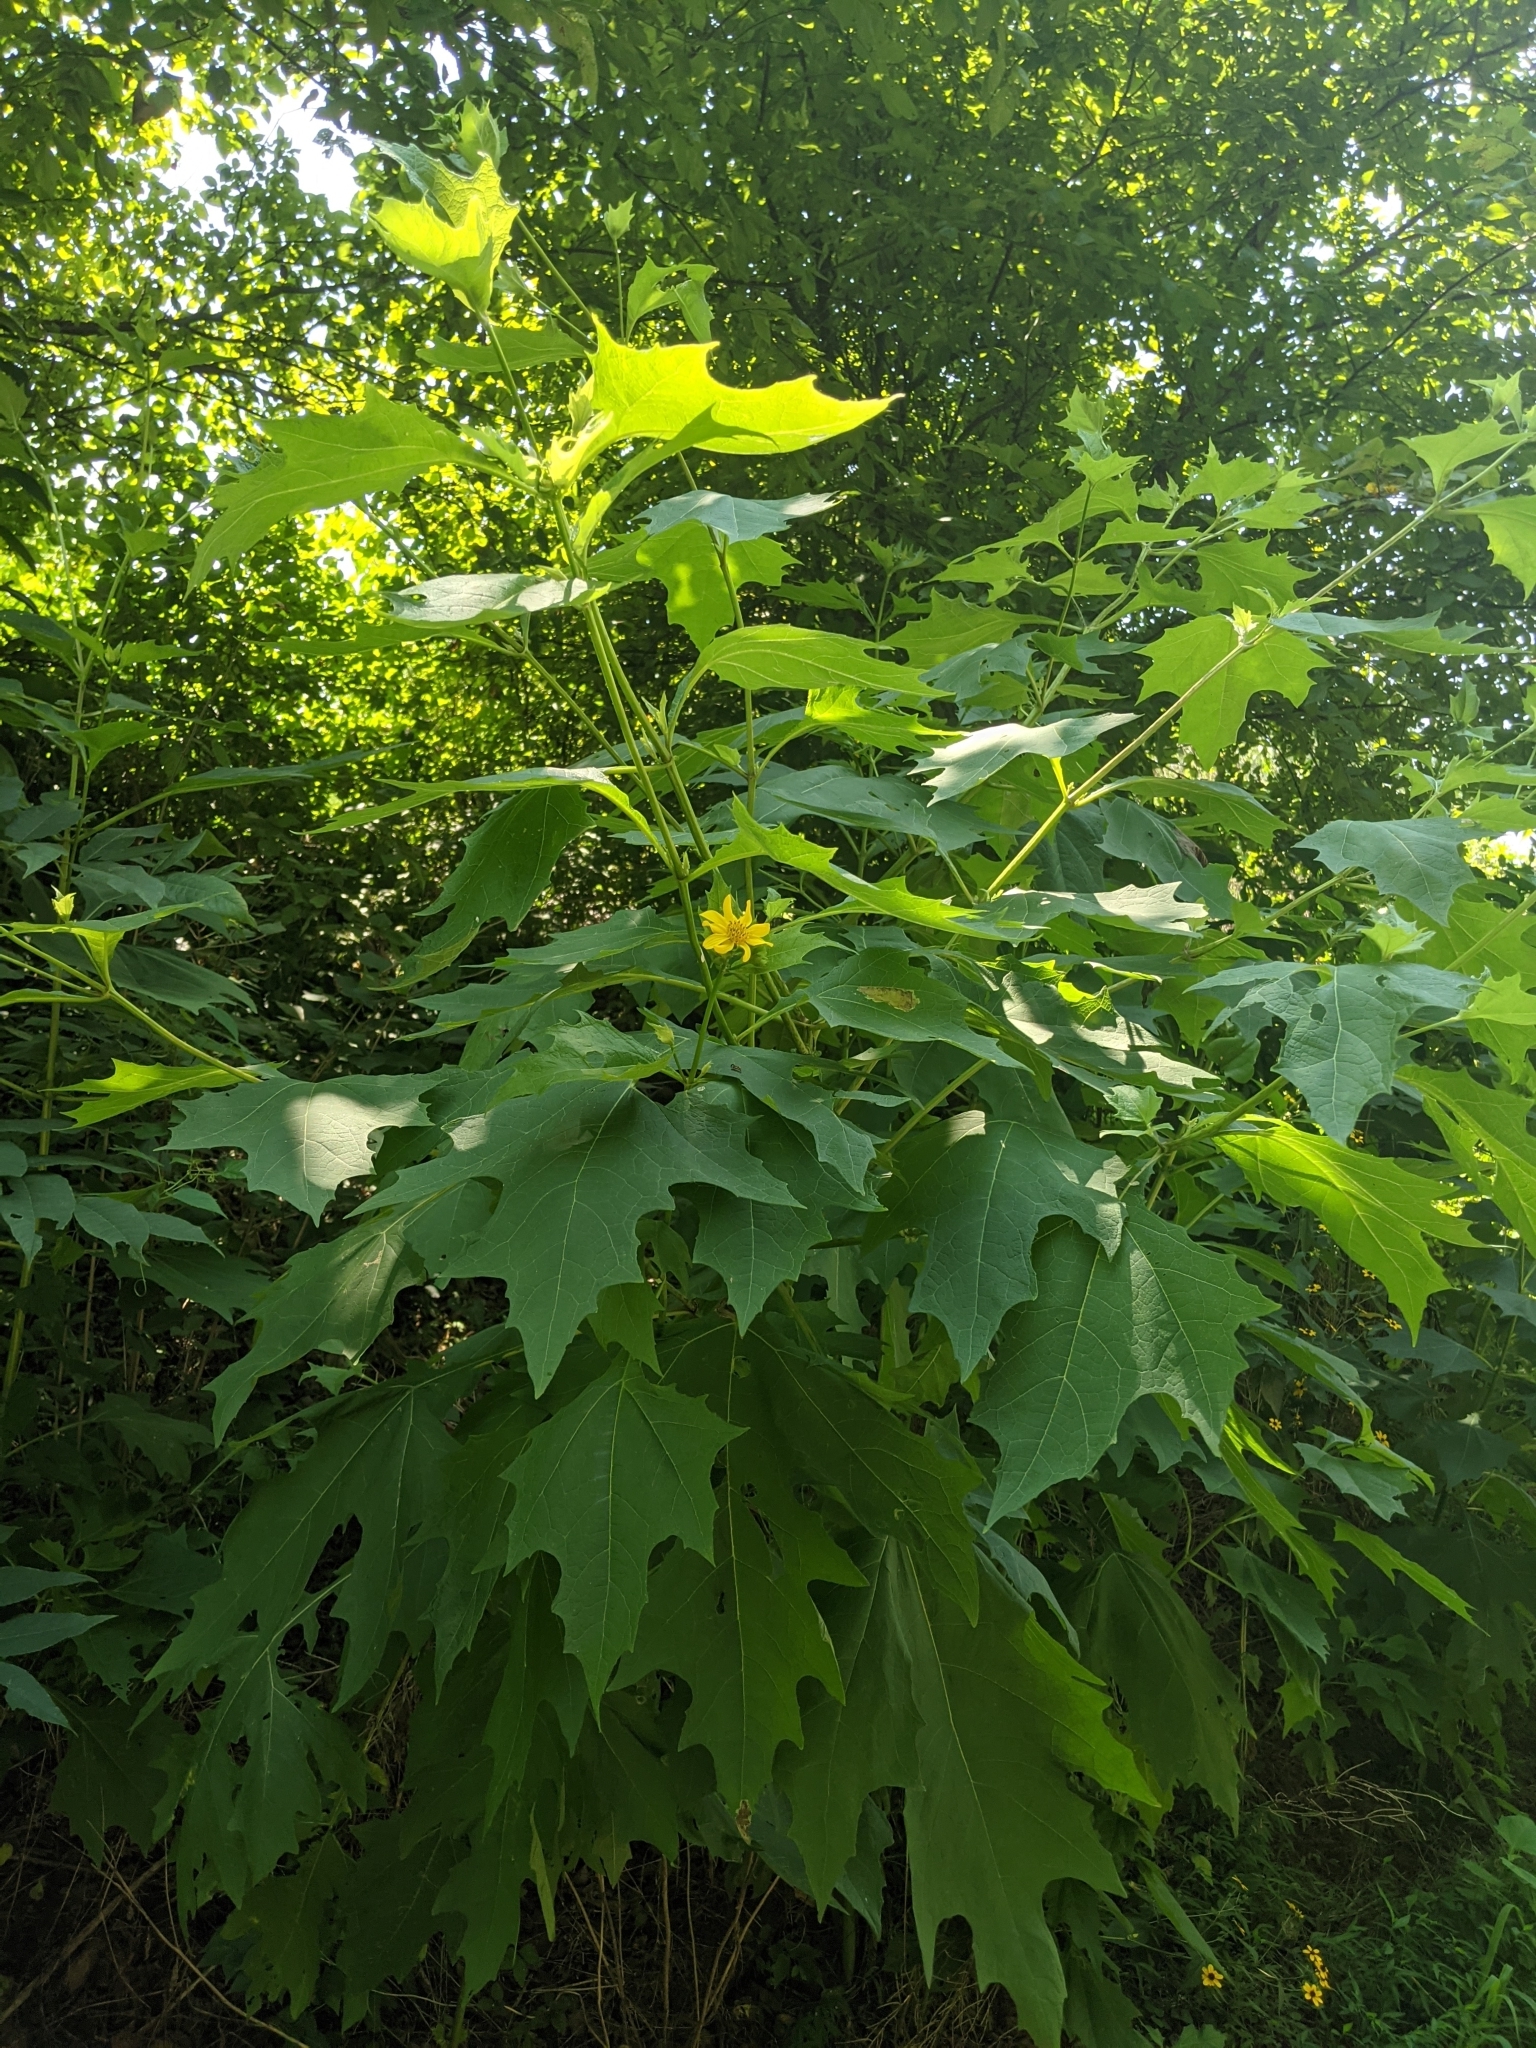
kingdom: Plantae
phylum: Tracheophyta
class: Magnoliopsida
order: Asterales
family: Asteraceae
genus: Smallanthus
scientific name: Smallanthus uvedalia
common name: Bear's-foot
